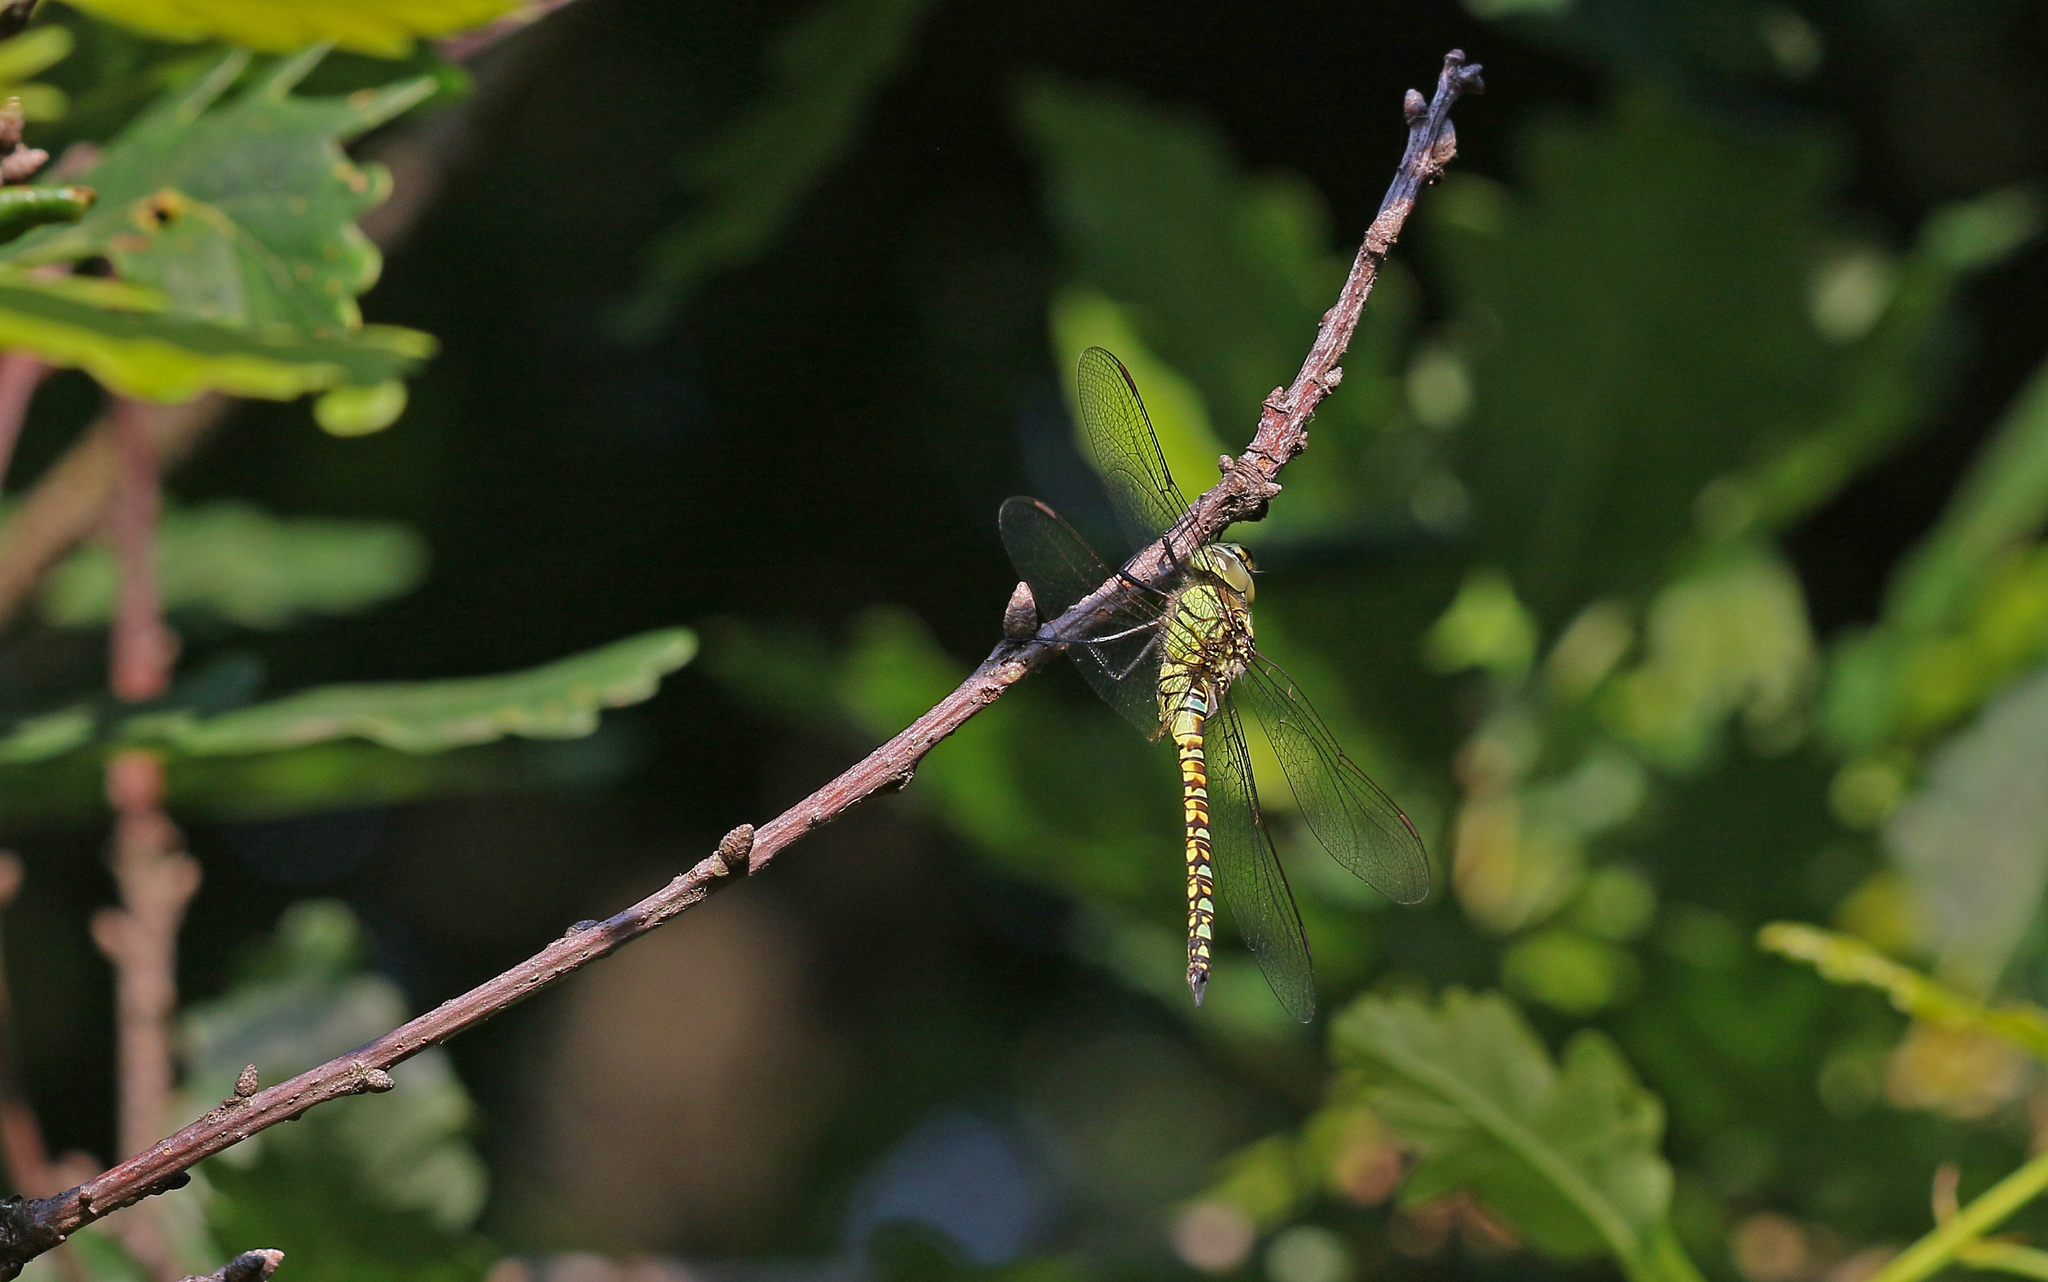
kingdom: Animalia
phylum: Arthropoda
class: Insecta
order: Odonata
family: Aeshnidae
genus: Aeshna
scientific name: Aeshna affinis
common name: Southern migrant hawker
